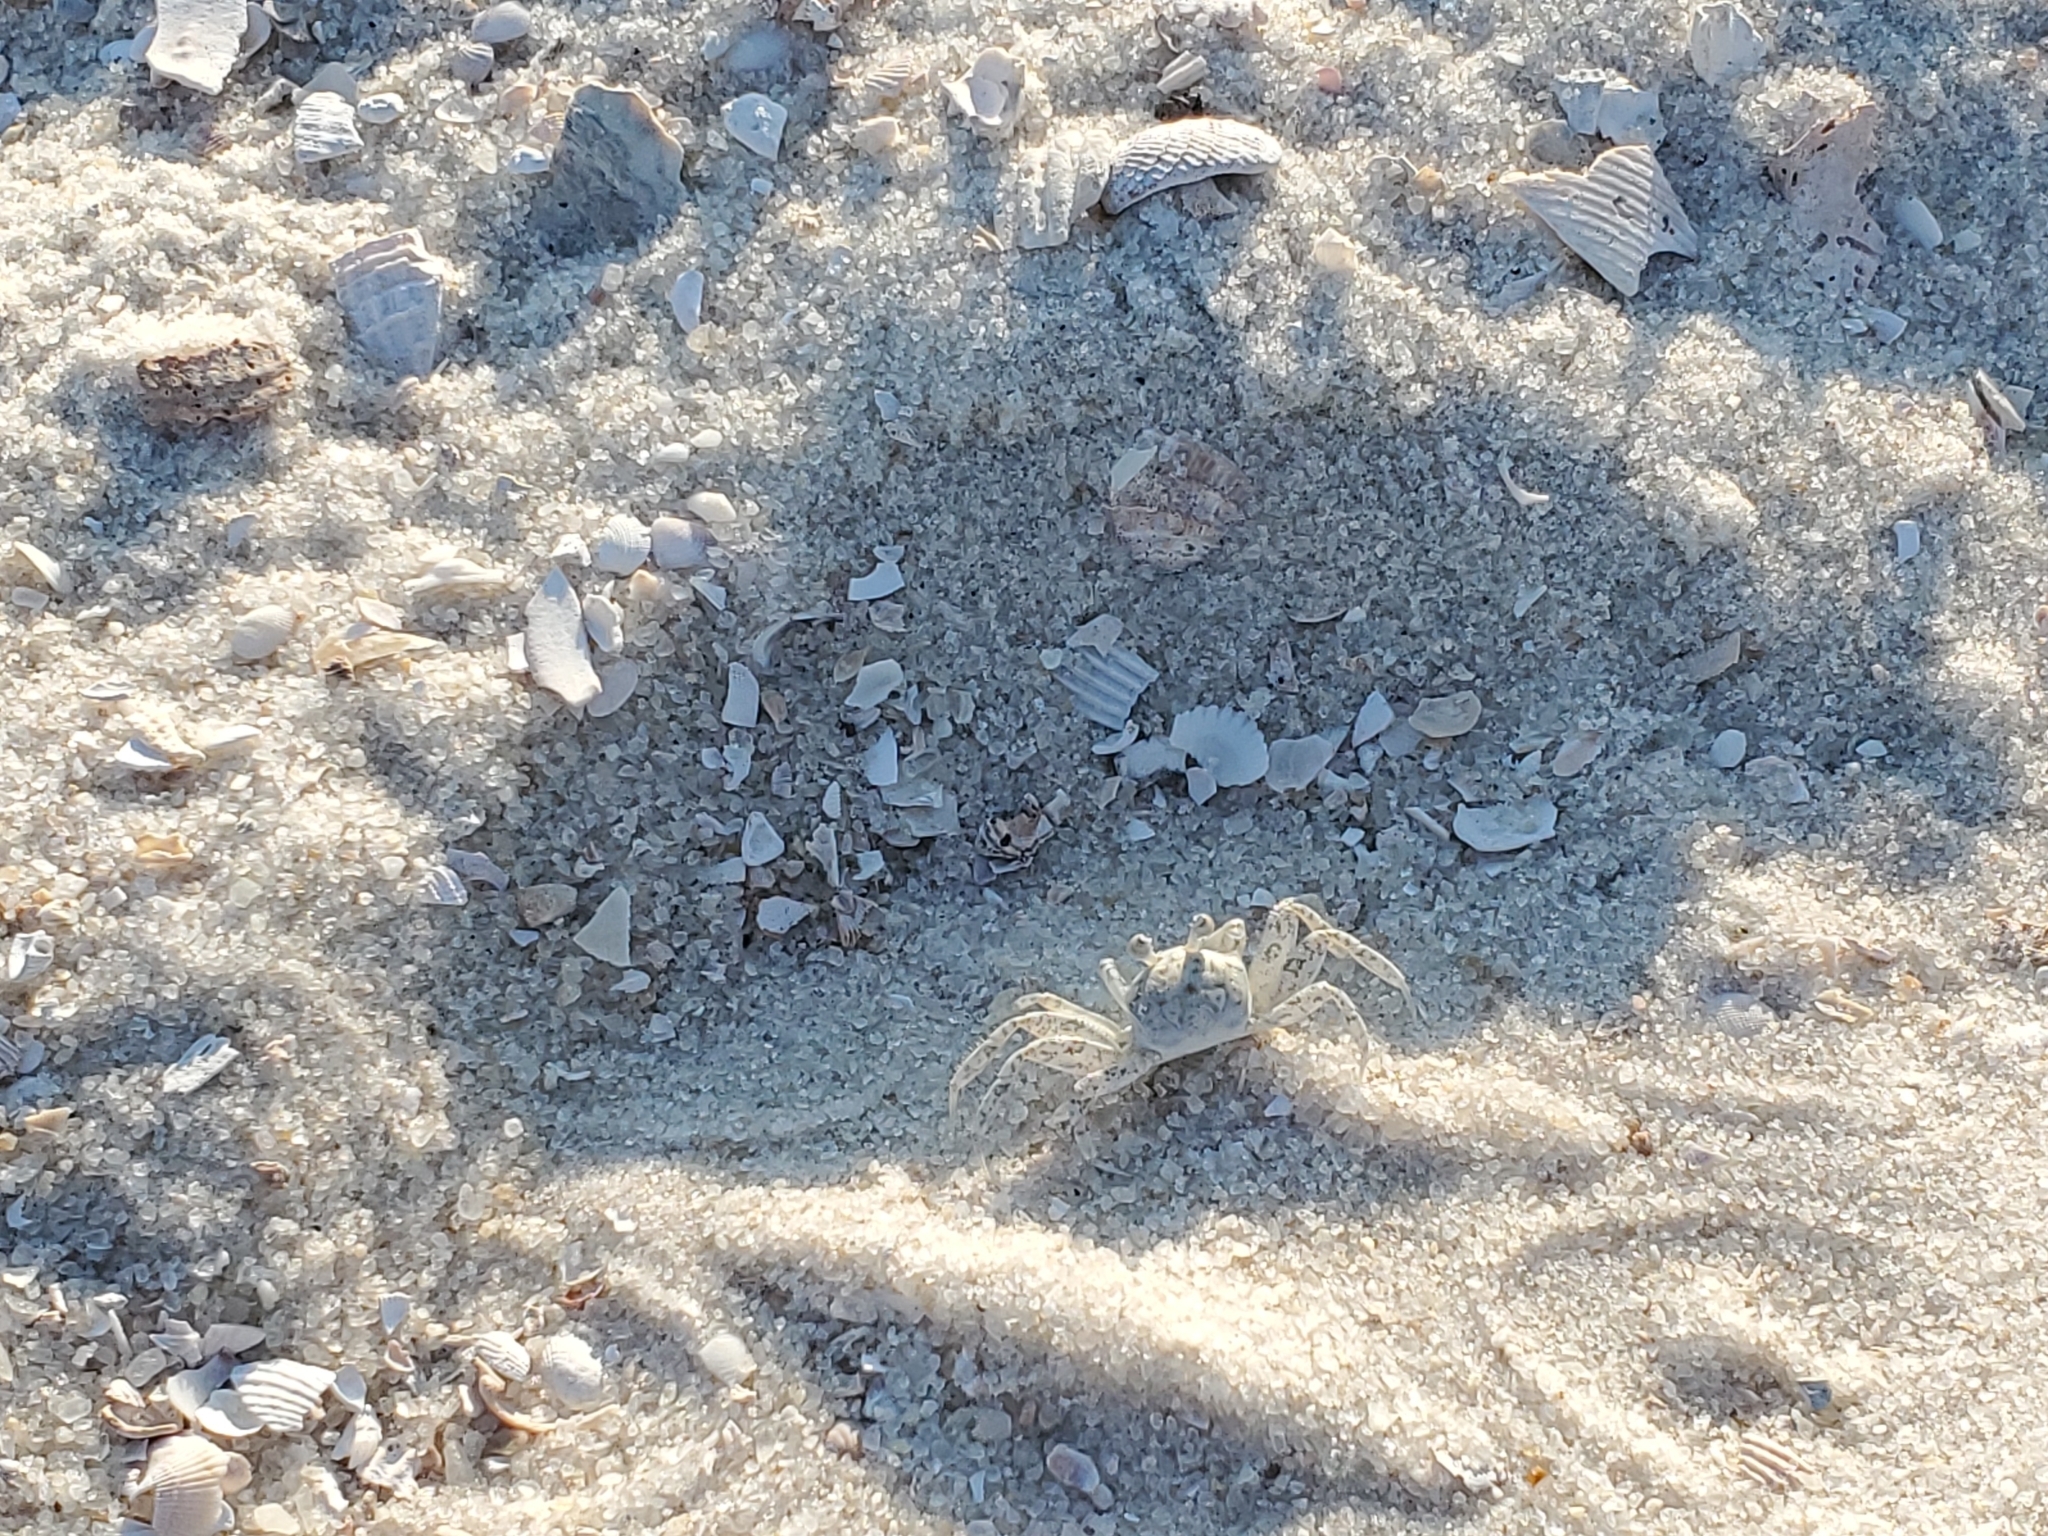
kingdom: Animalia
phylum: Arthropoda
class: Malacostraca
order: Decapoda
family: Ocypodidae
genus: Ocypode
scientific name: Ocypode quadrata
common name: Ghost crab
